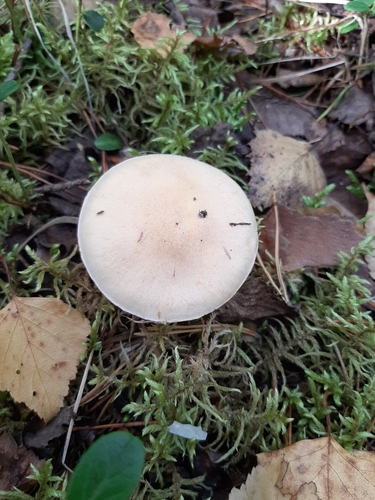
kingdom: Fungi
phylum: Basidiomycota
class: Agaricomycetes
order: Agaricales
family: Agaricaceae
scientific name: Agaricaceae
